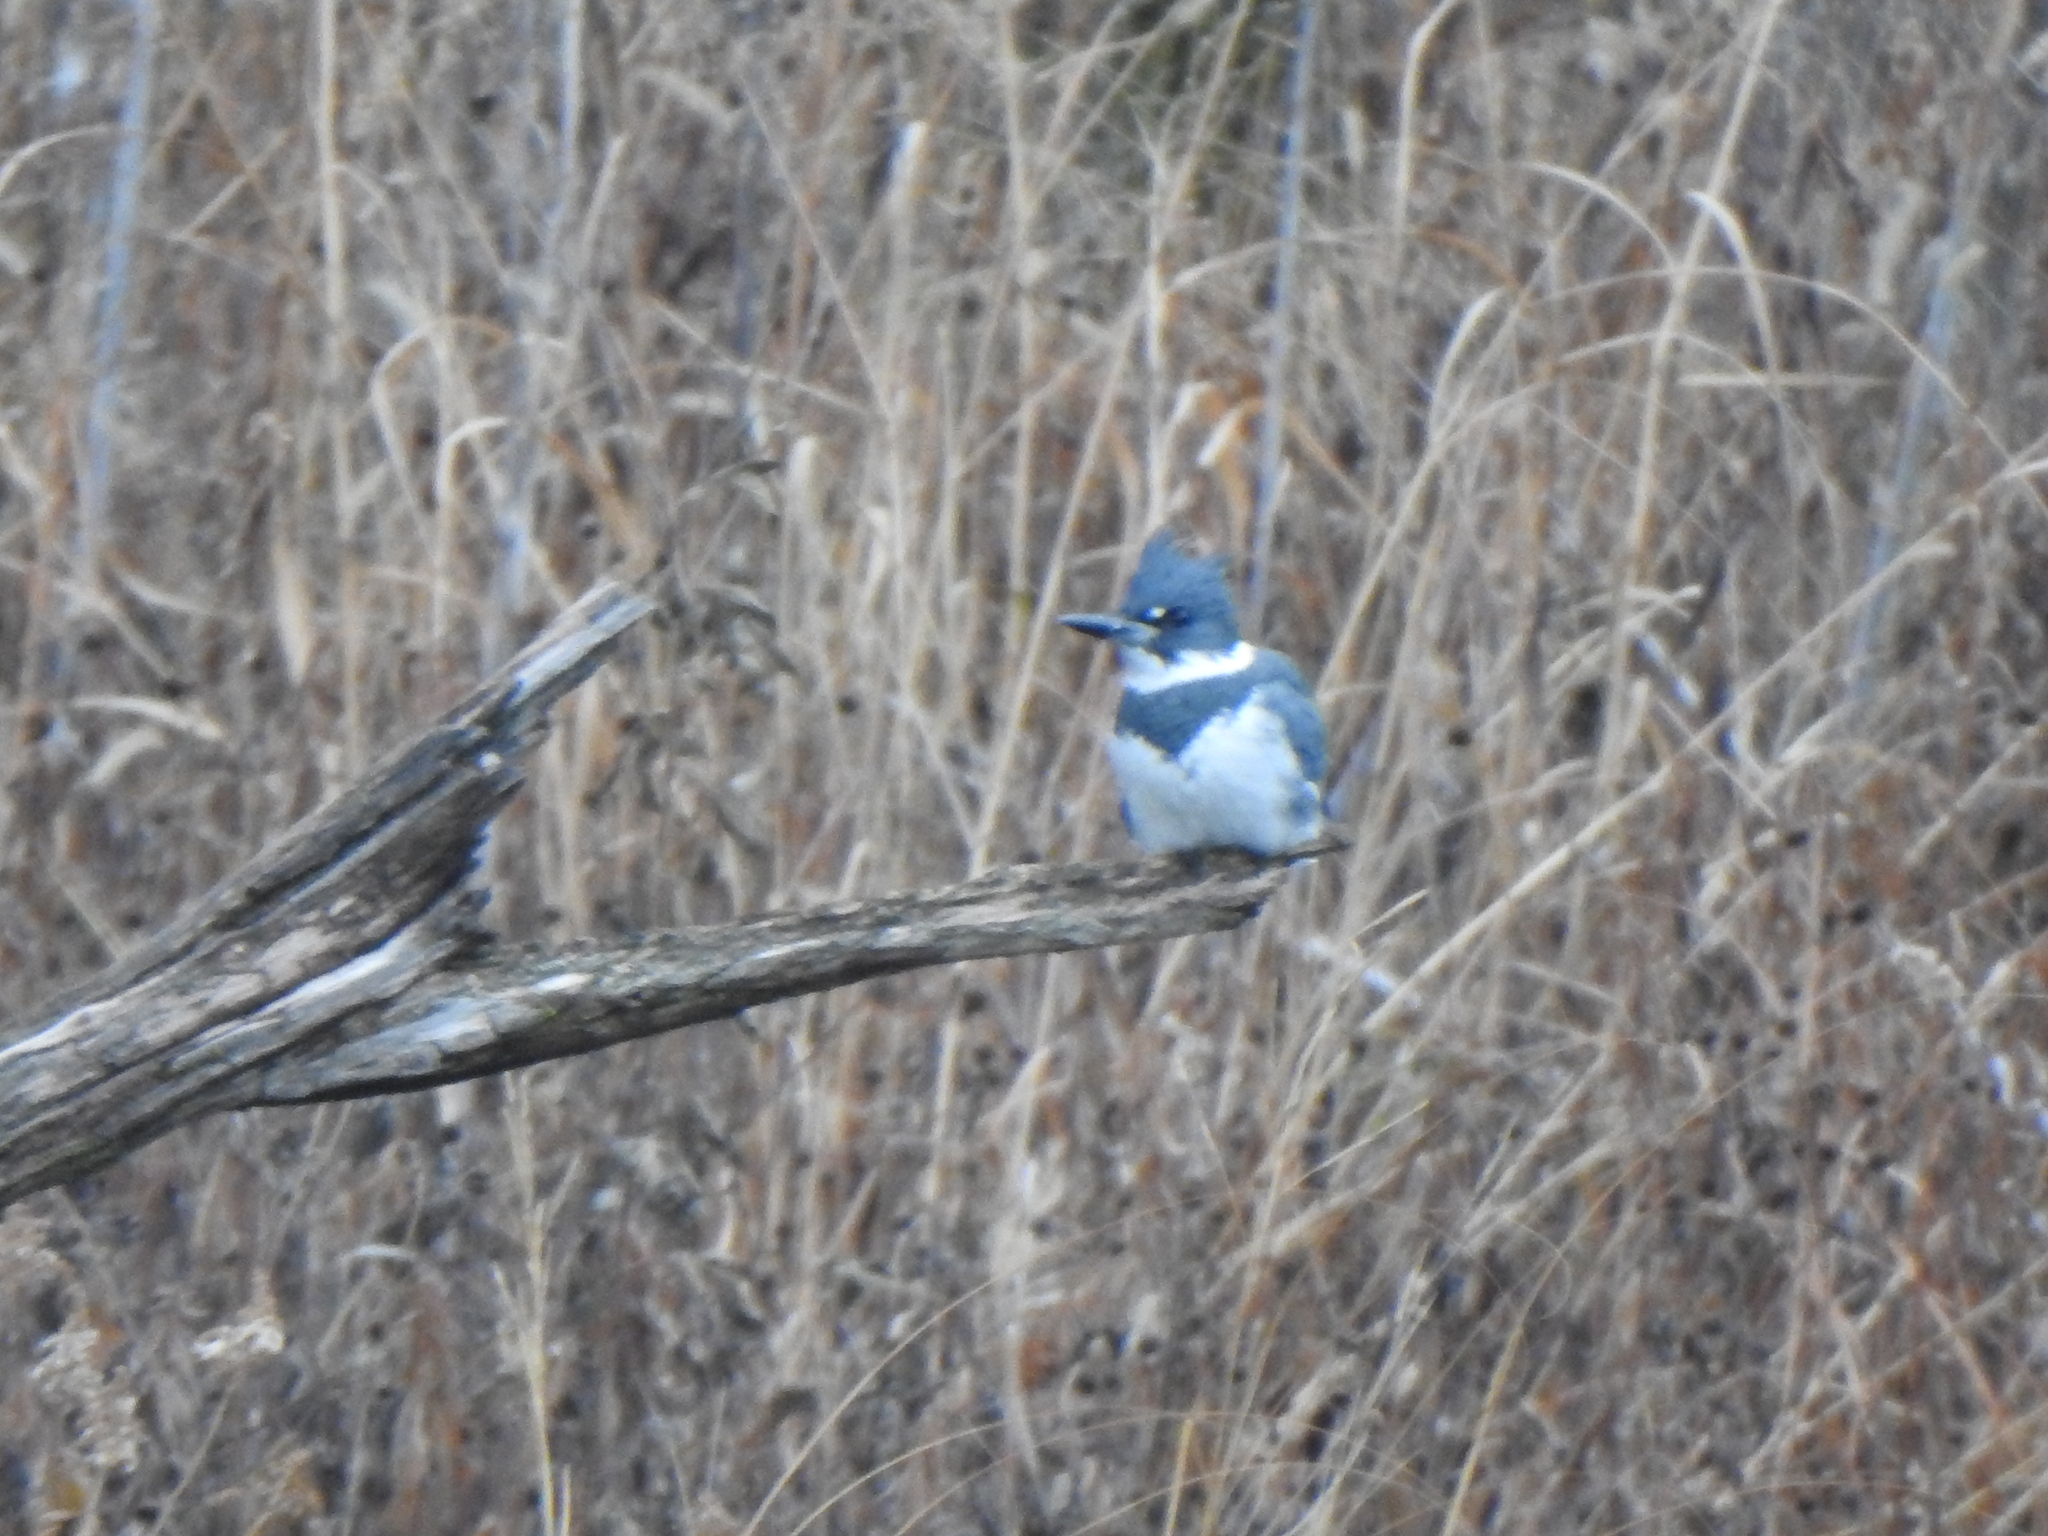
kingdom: Animalia
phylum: Chordata
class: Aves
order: Coraciiformes
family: Alcedinidae
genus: Megaceryle
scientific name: Megaceryle alcyon
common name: Belted kingfisher
